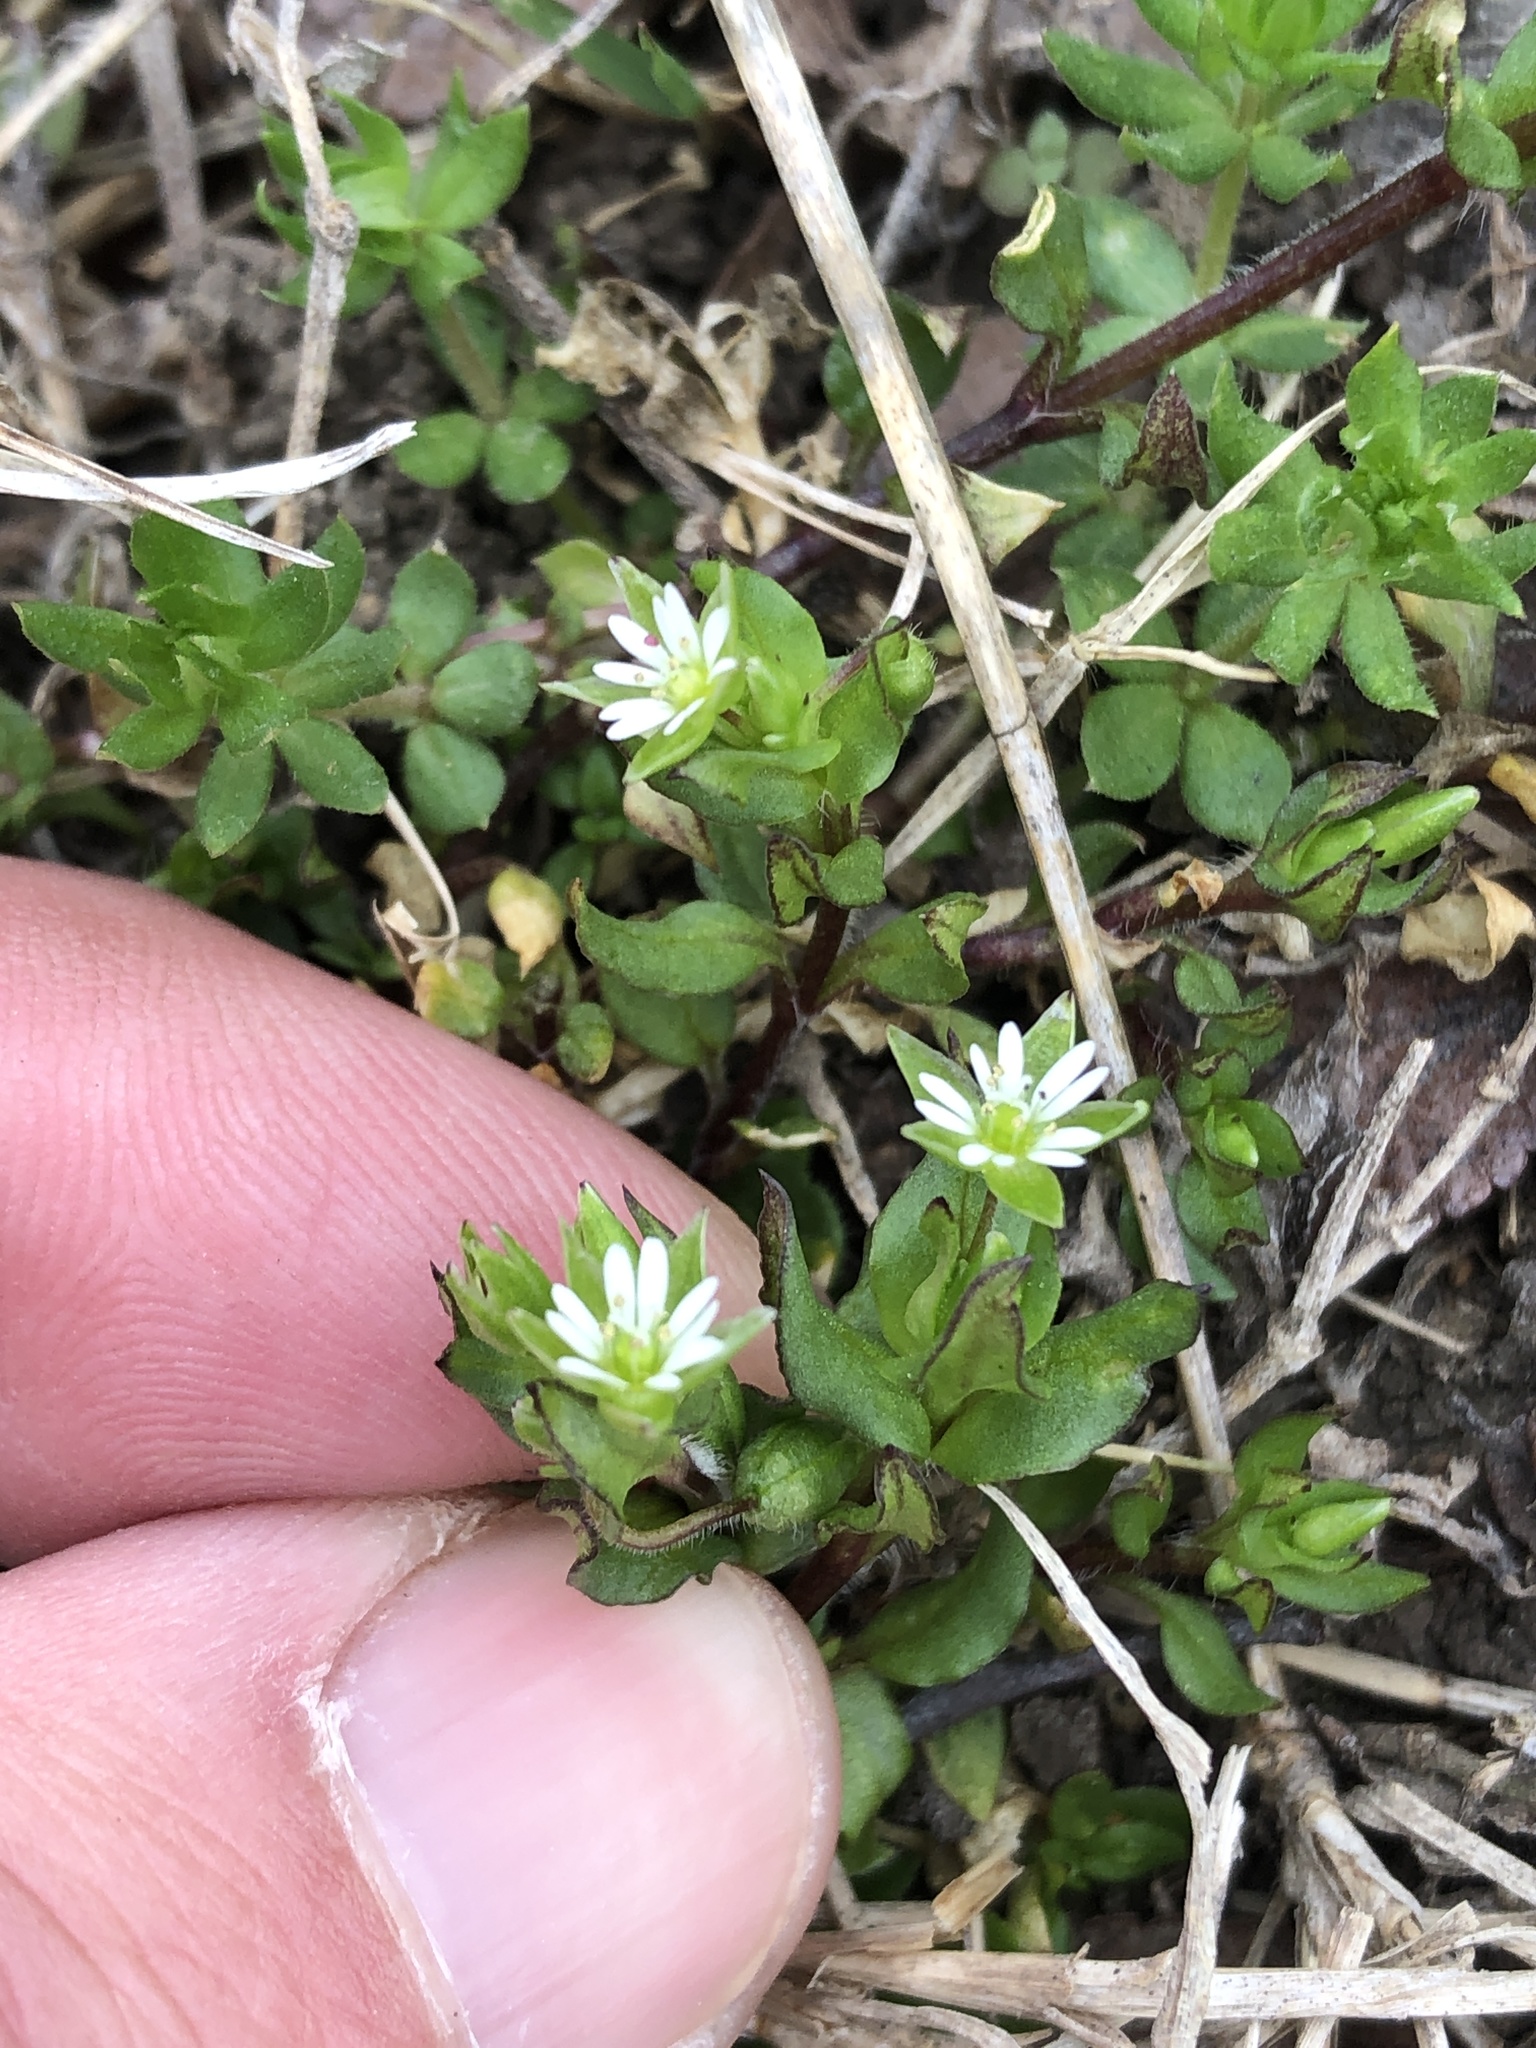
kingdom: Plantae
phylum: Tracheophyta
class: Magnoliopsida
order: Caryophyllales
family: Caryophyllaceae
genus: Stellaria
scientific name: Stellaria media
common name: Common chickweed
